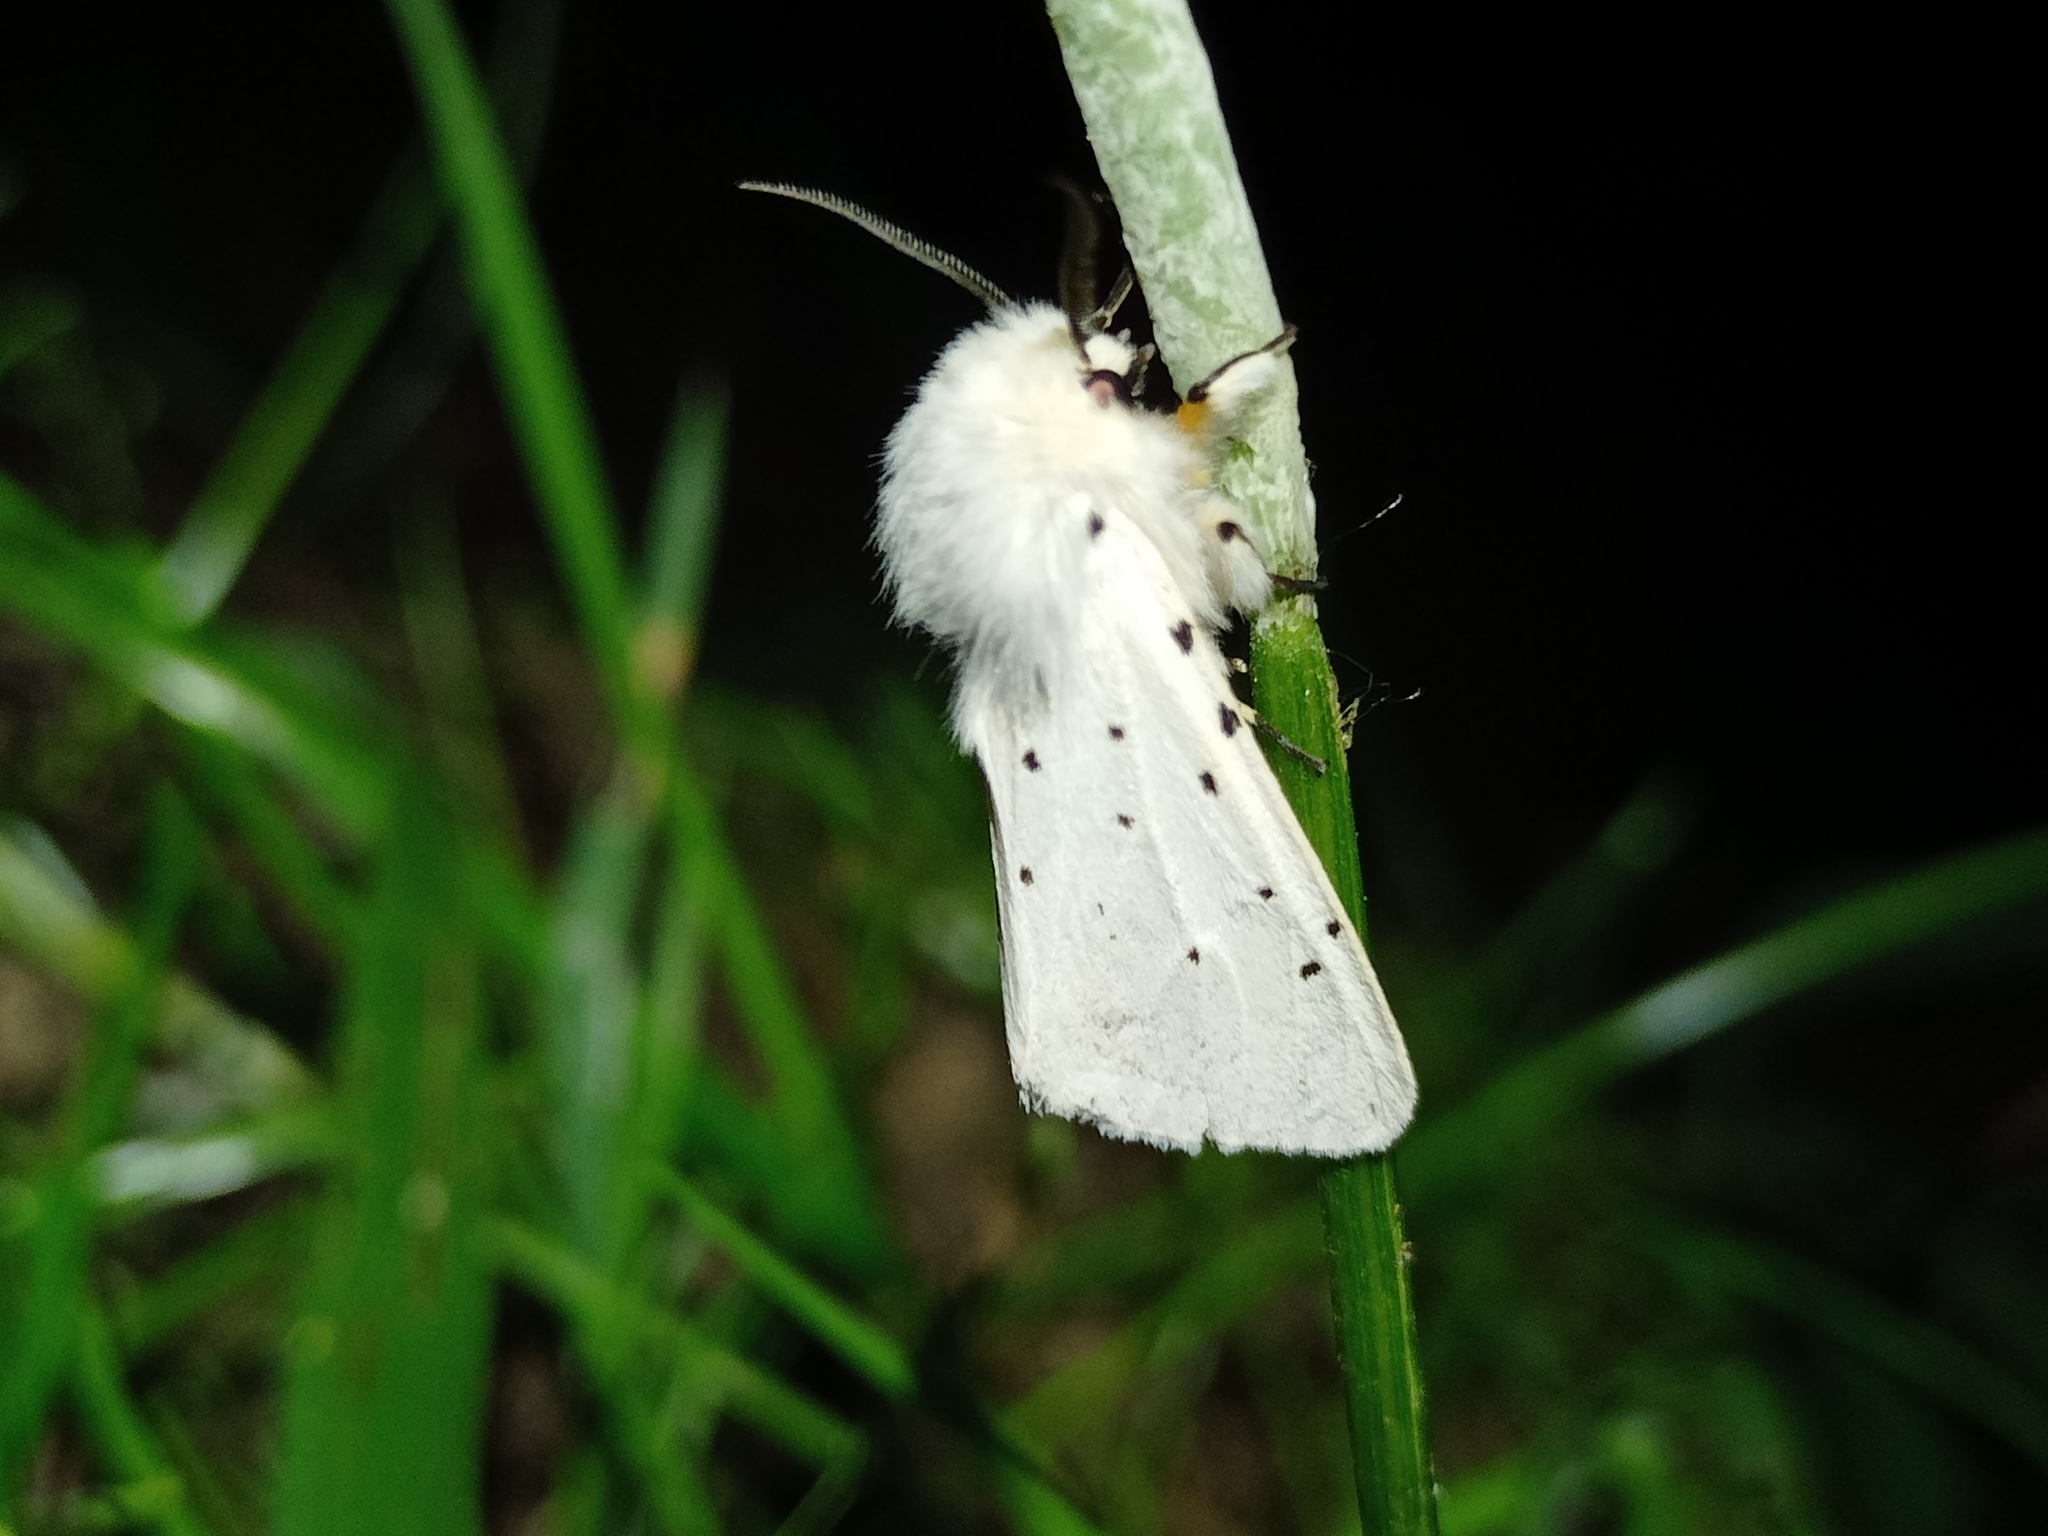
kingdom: Animalia
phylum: Arthropoda
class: Insecta
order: Lepidoptera
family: Erebidae
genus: Spilosoma
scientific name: Spilosoma lubricipeda
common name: White ermine
